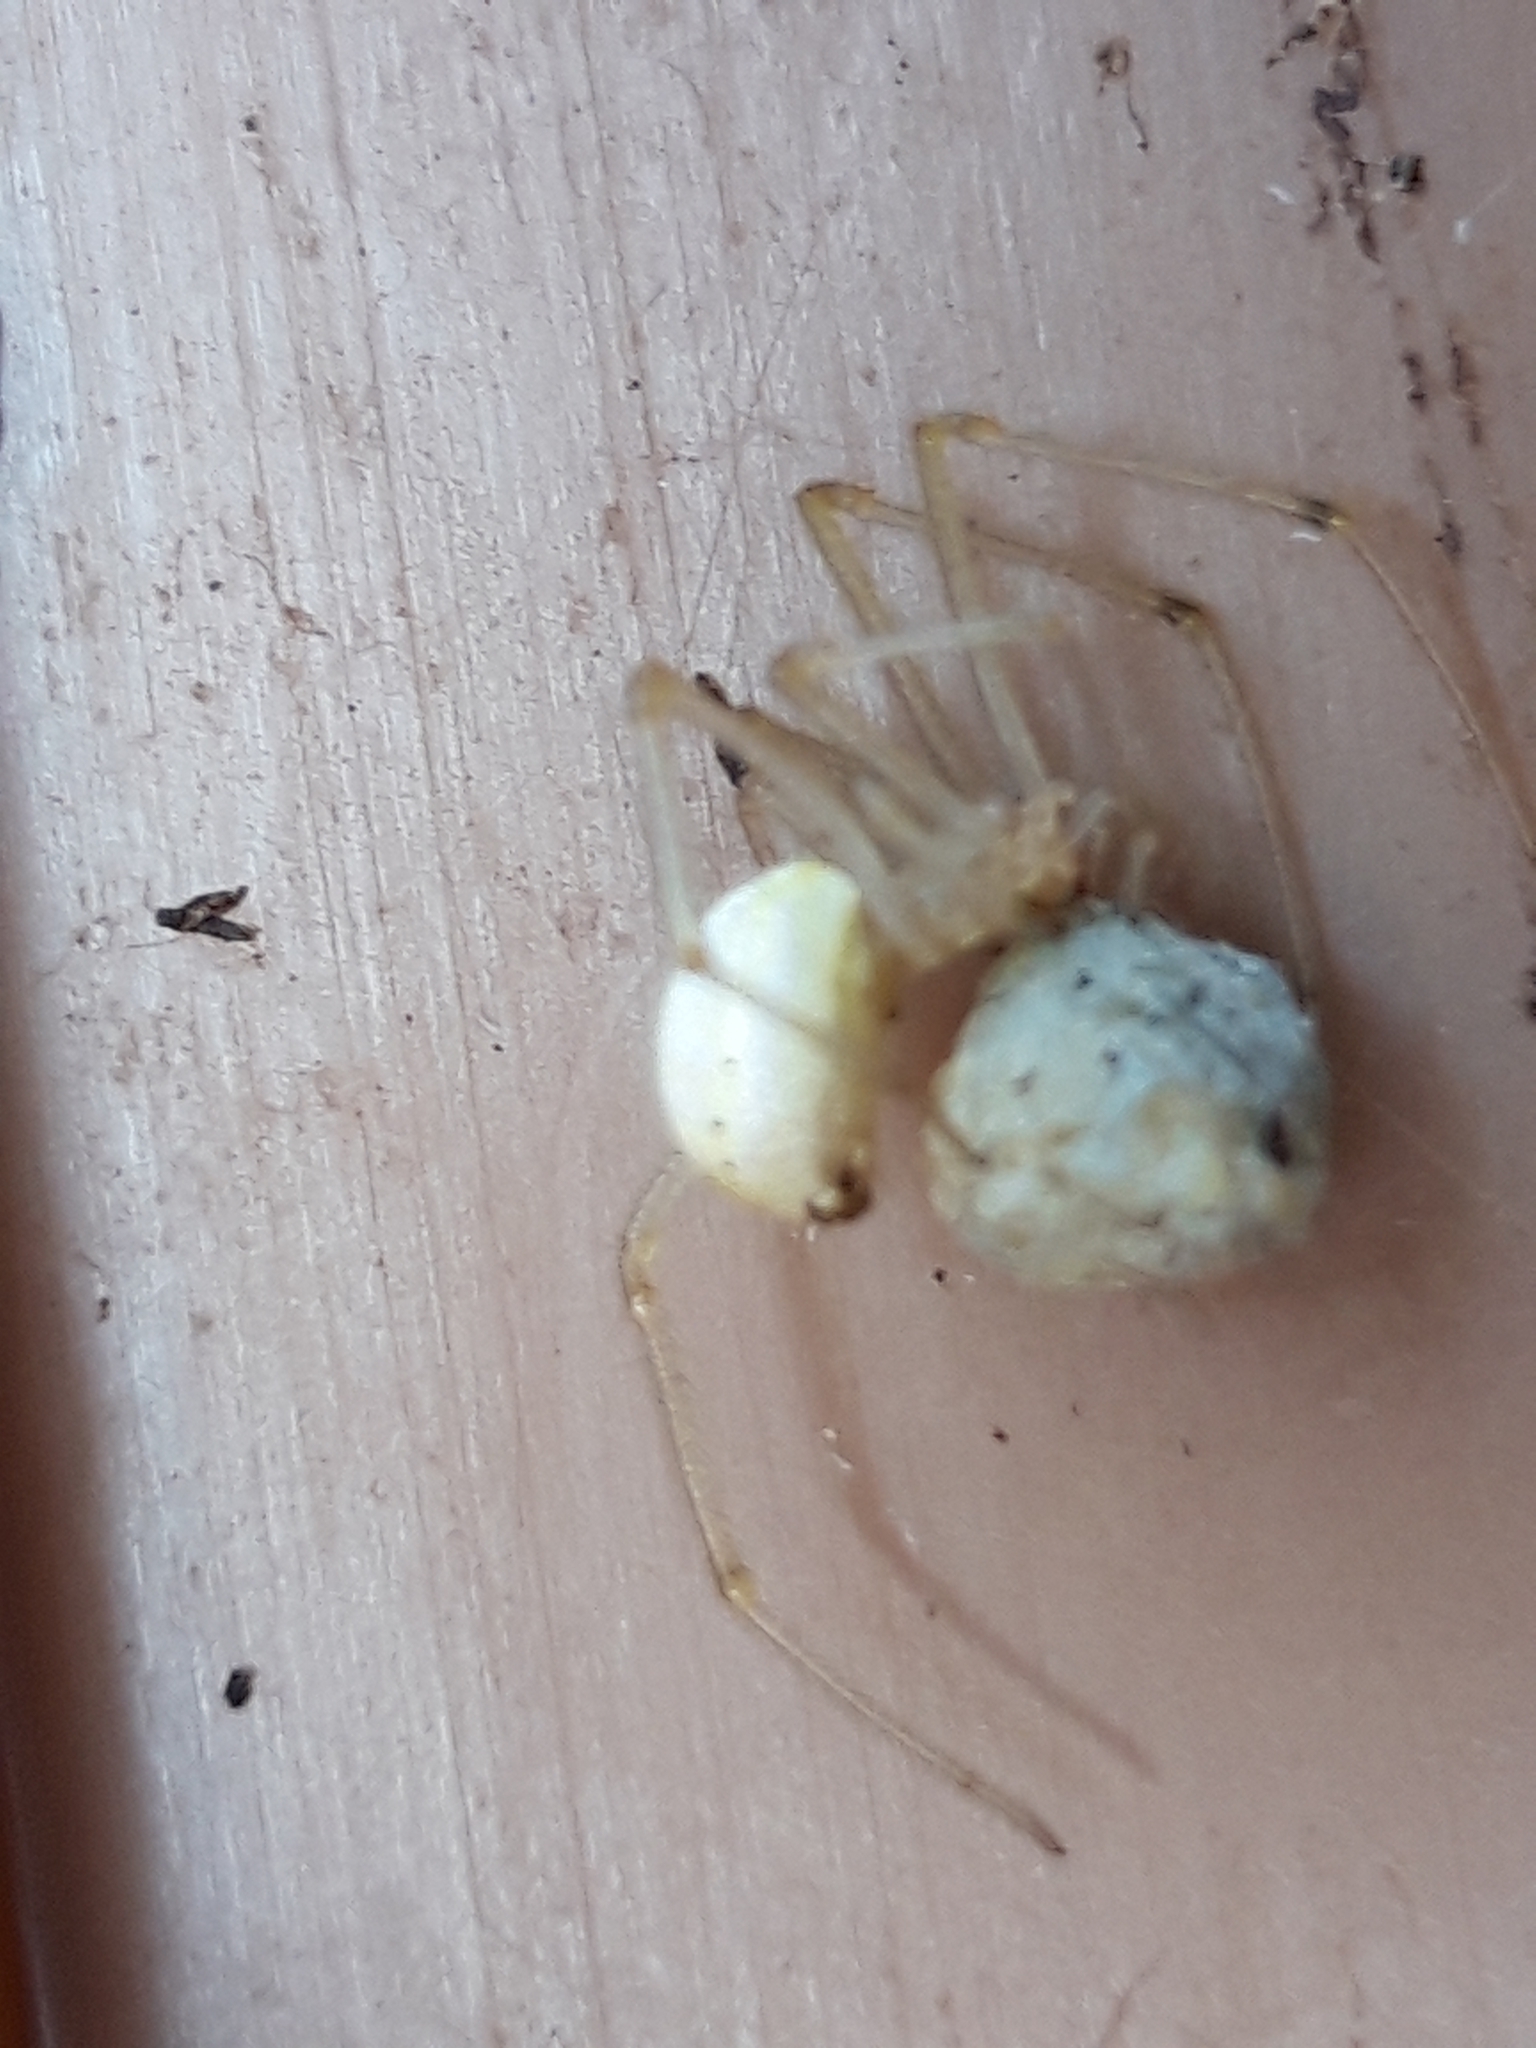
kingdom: Animalia
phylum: Arthropoda
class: Arachnida
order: Araneae
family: Theridiidae
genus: Enoplognatha
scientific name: Enoplognatha ovata
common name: Common candy-striped spider
